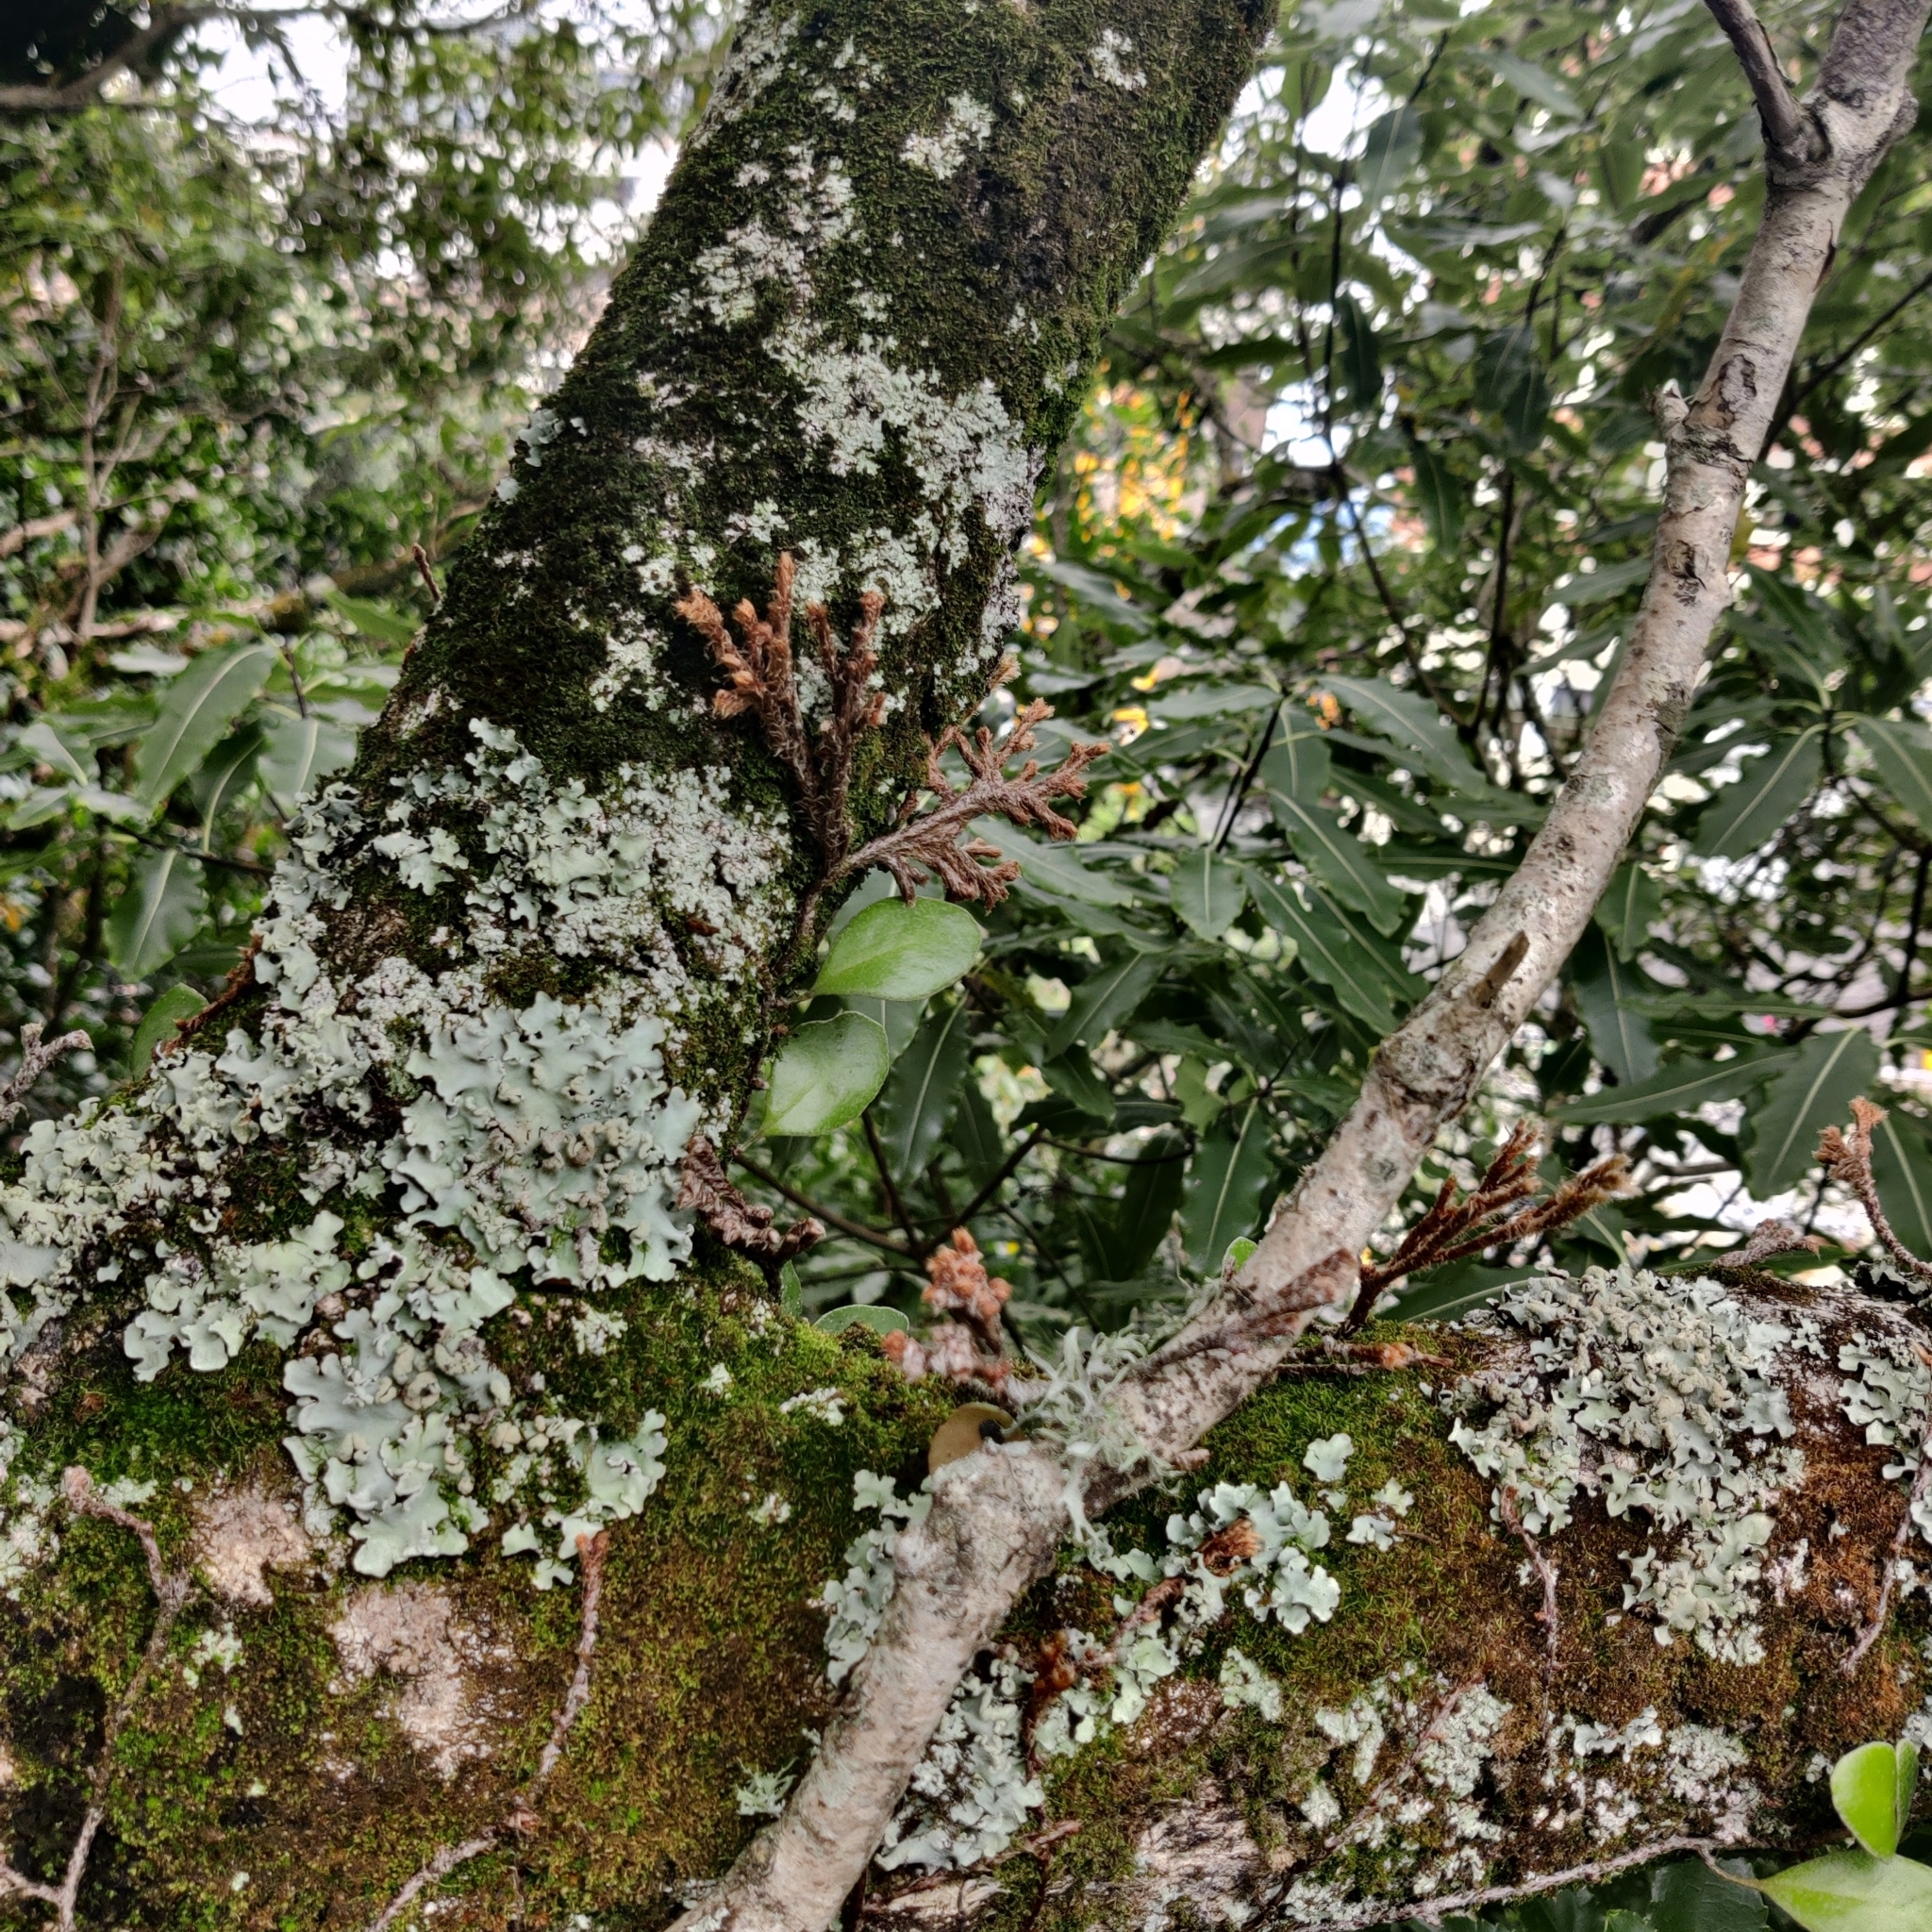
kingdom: Animalia
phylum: Arthropoda
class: Arachnida
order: Trombidiformes
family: Eriophyidae
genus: Acerimina
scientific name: Acerimina pyrrosiae
